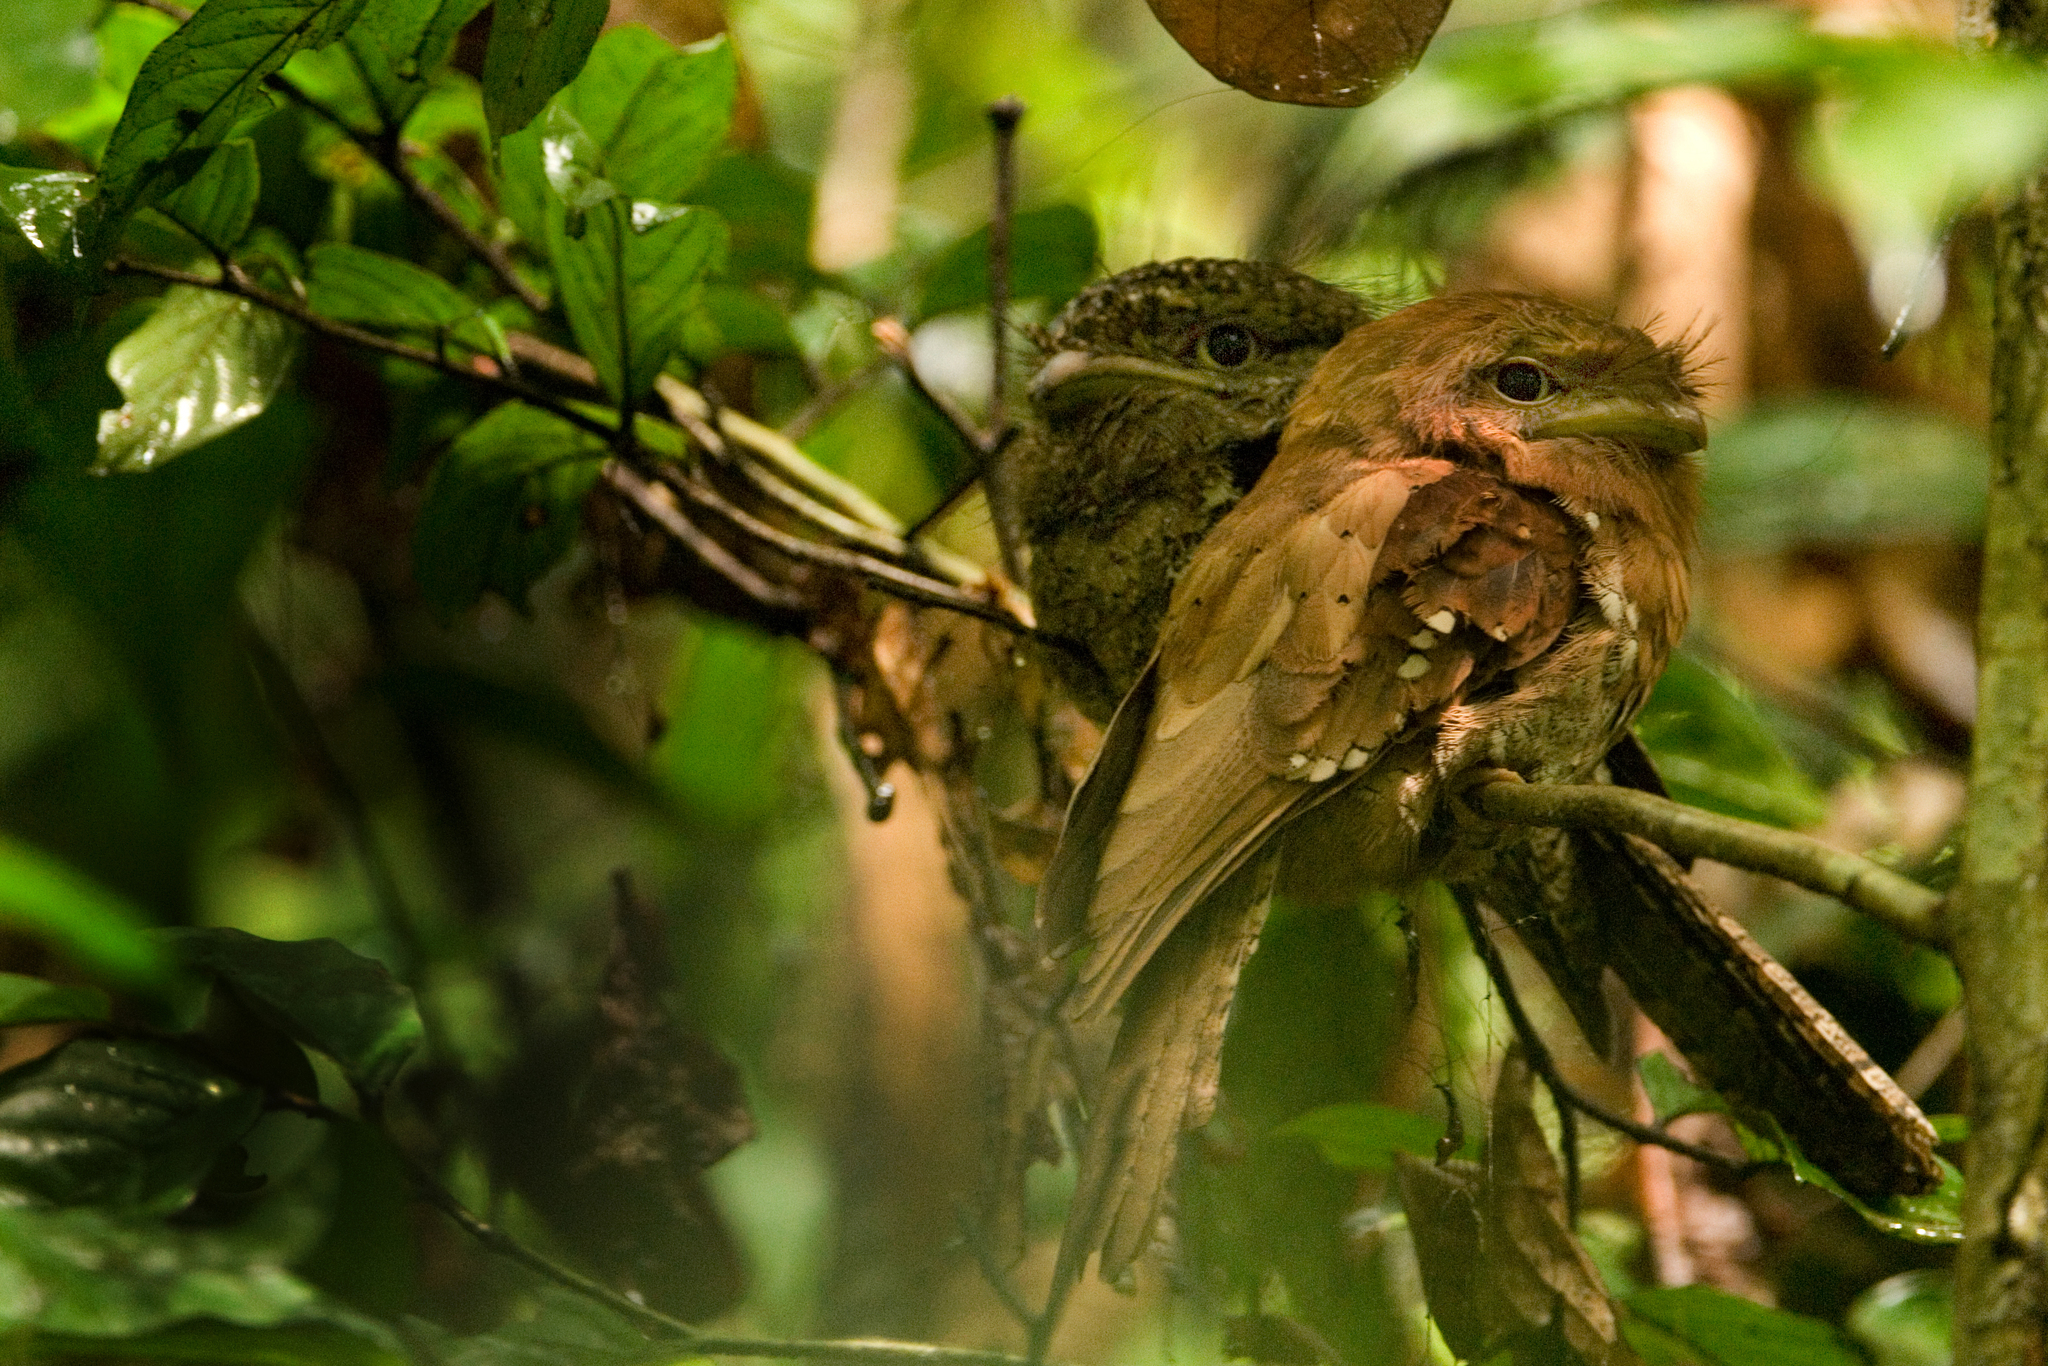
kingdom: Animalia
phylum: Chordata
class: Aves
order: Caprimulgiformes
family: Podargidae
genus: Batrachostomus
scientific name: Batrachostomus moniliger
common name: Sri lanka frogmouth
